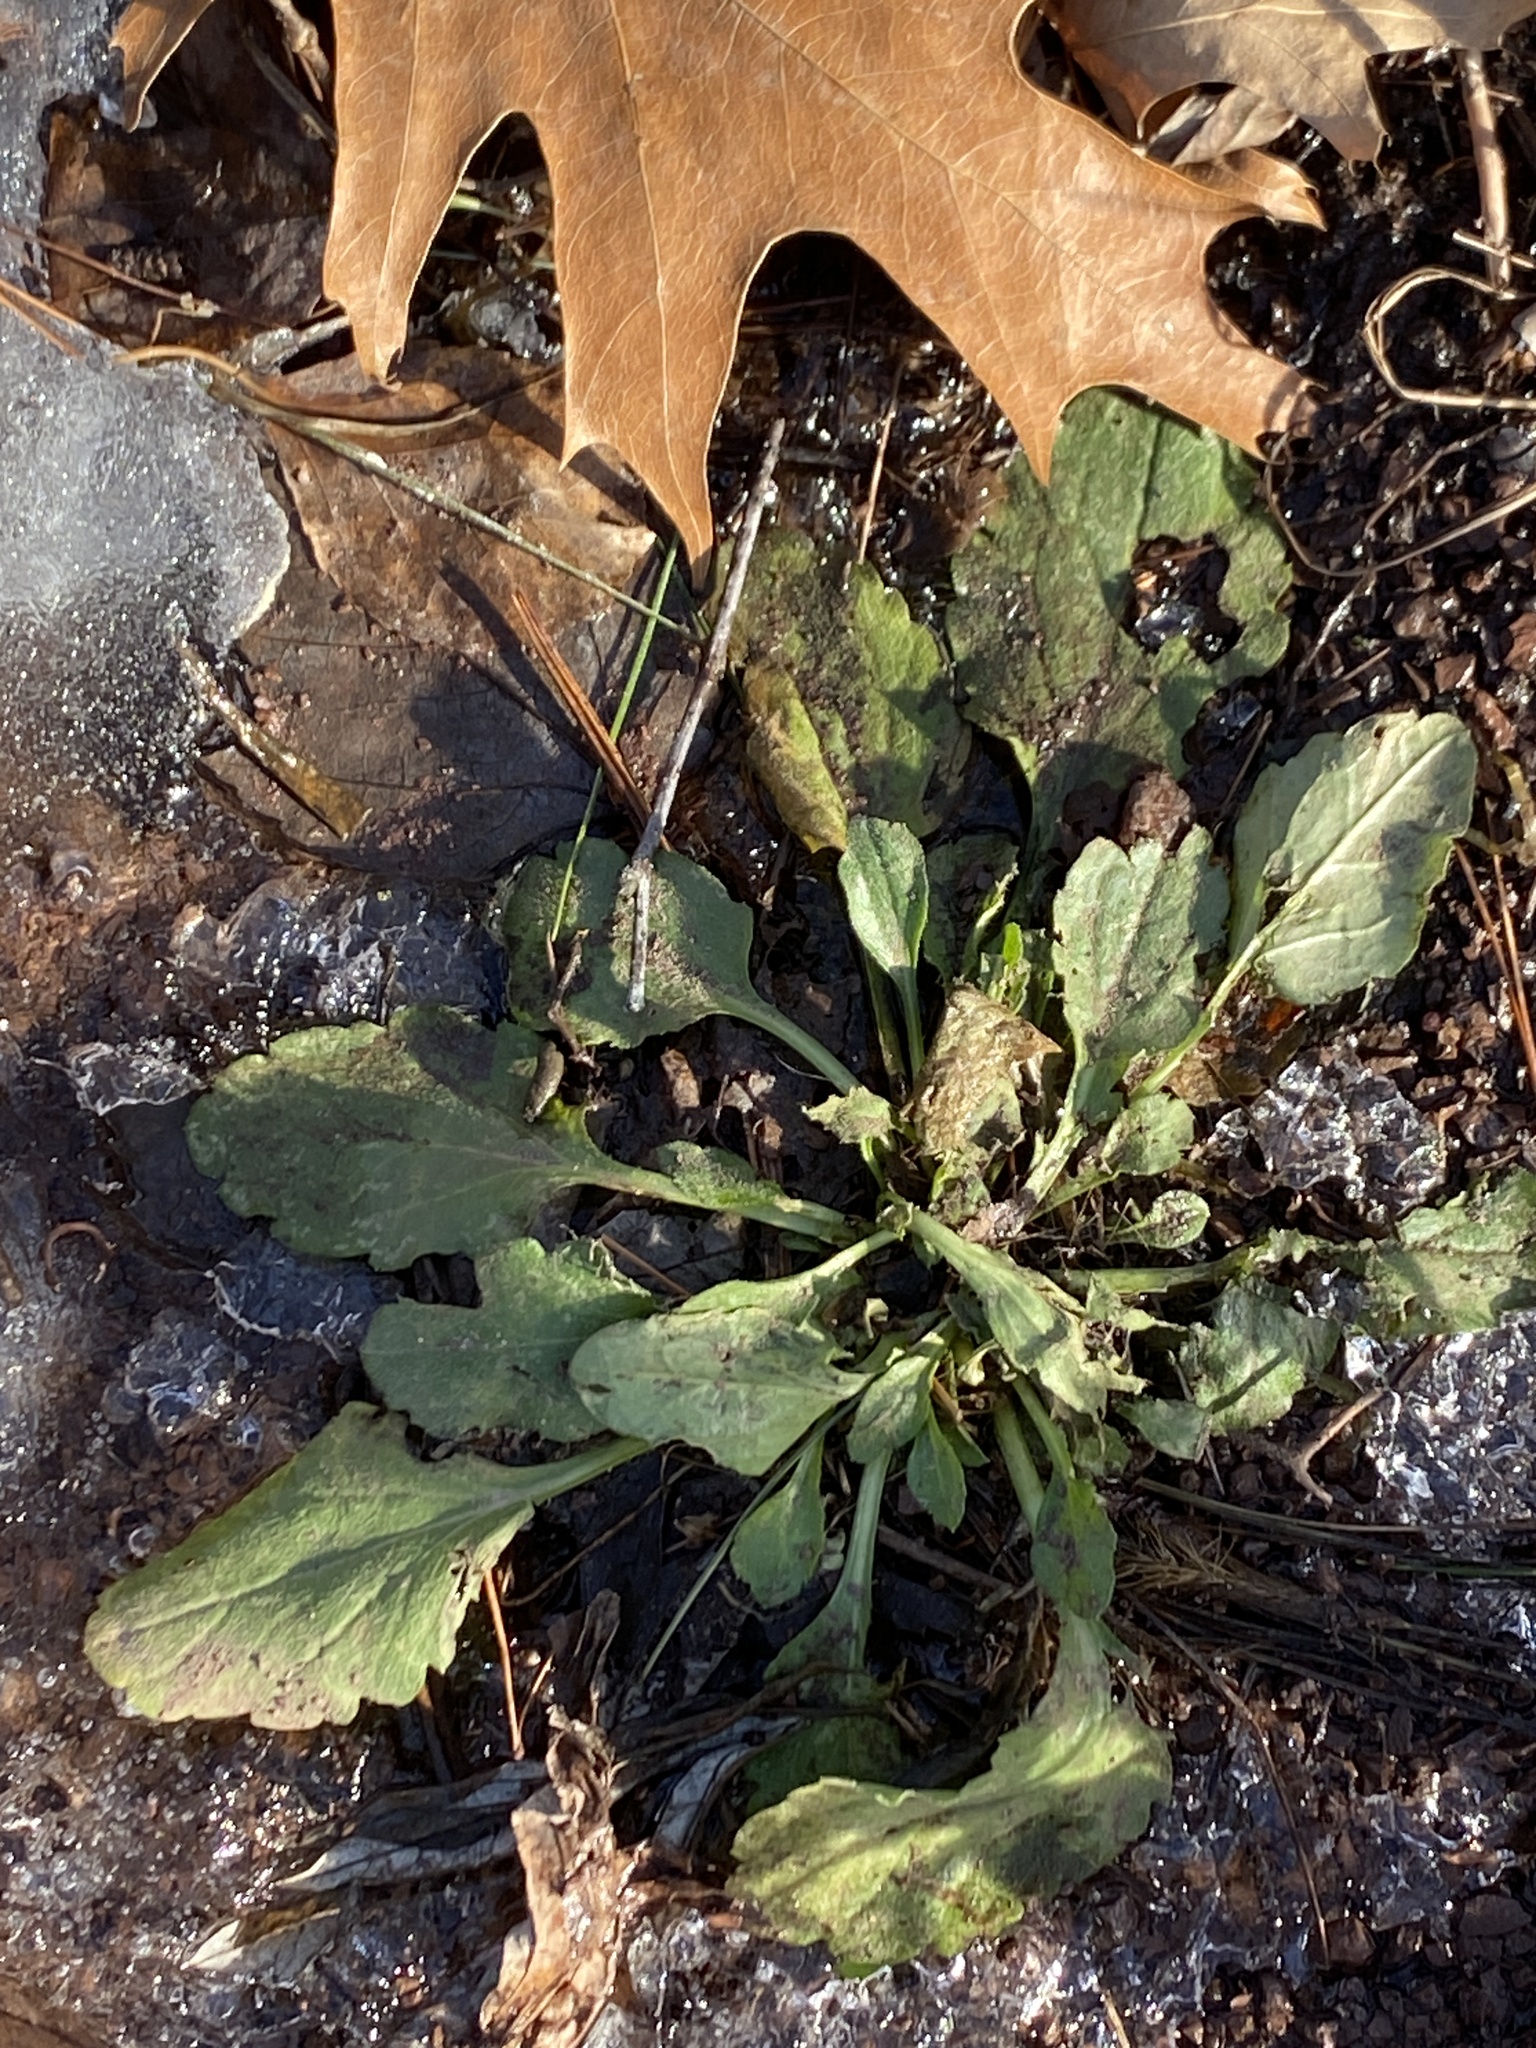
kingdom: Plantae
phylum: Tracheophyta
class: Magnoliopsida
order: Asterales
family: Asteraceae
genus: Erigeron
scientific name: Erigeron canadensis
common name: Canadian fleabane
